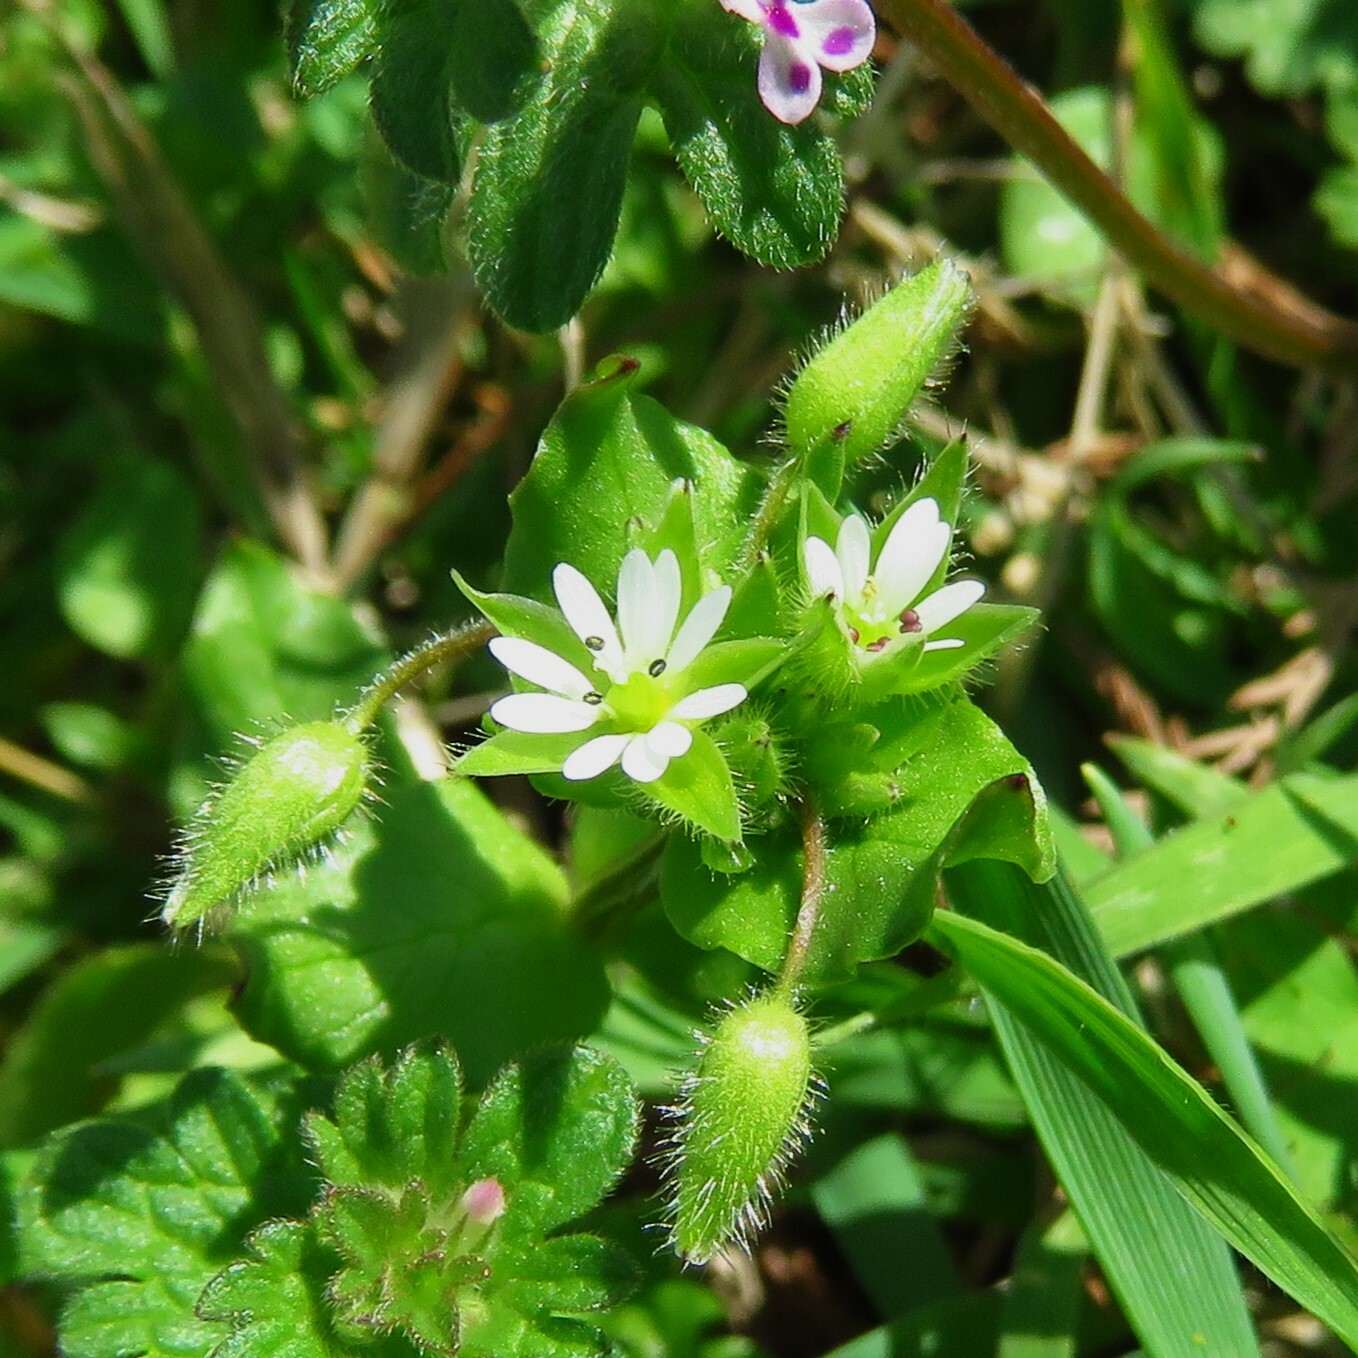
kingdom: Plantae
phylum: Tracheophyta
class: Magnoliopsida
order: Caryophyllales
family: Caryophyllaceae
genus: Stellaria
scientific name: Stellaria media
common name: Common chickweed
